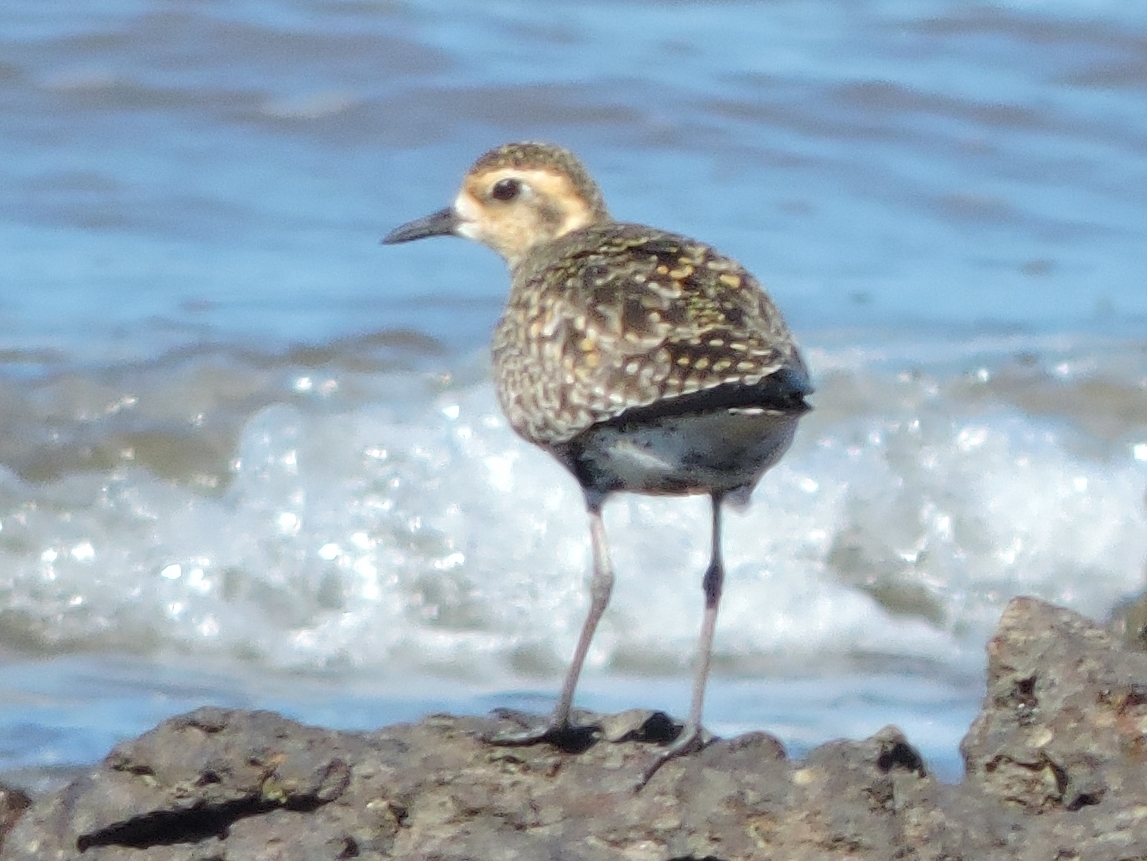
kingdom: Animalia
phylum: Chordata
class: Aves
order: Charadriiformes
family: Charadriidae
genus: Pluvialis
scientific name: Pluvialis fulva
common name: Pacific golden plover
